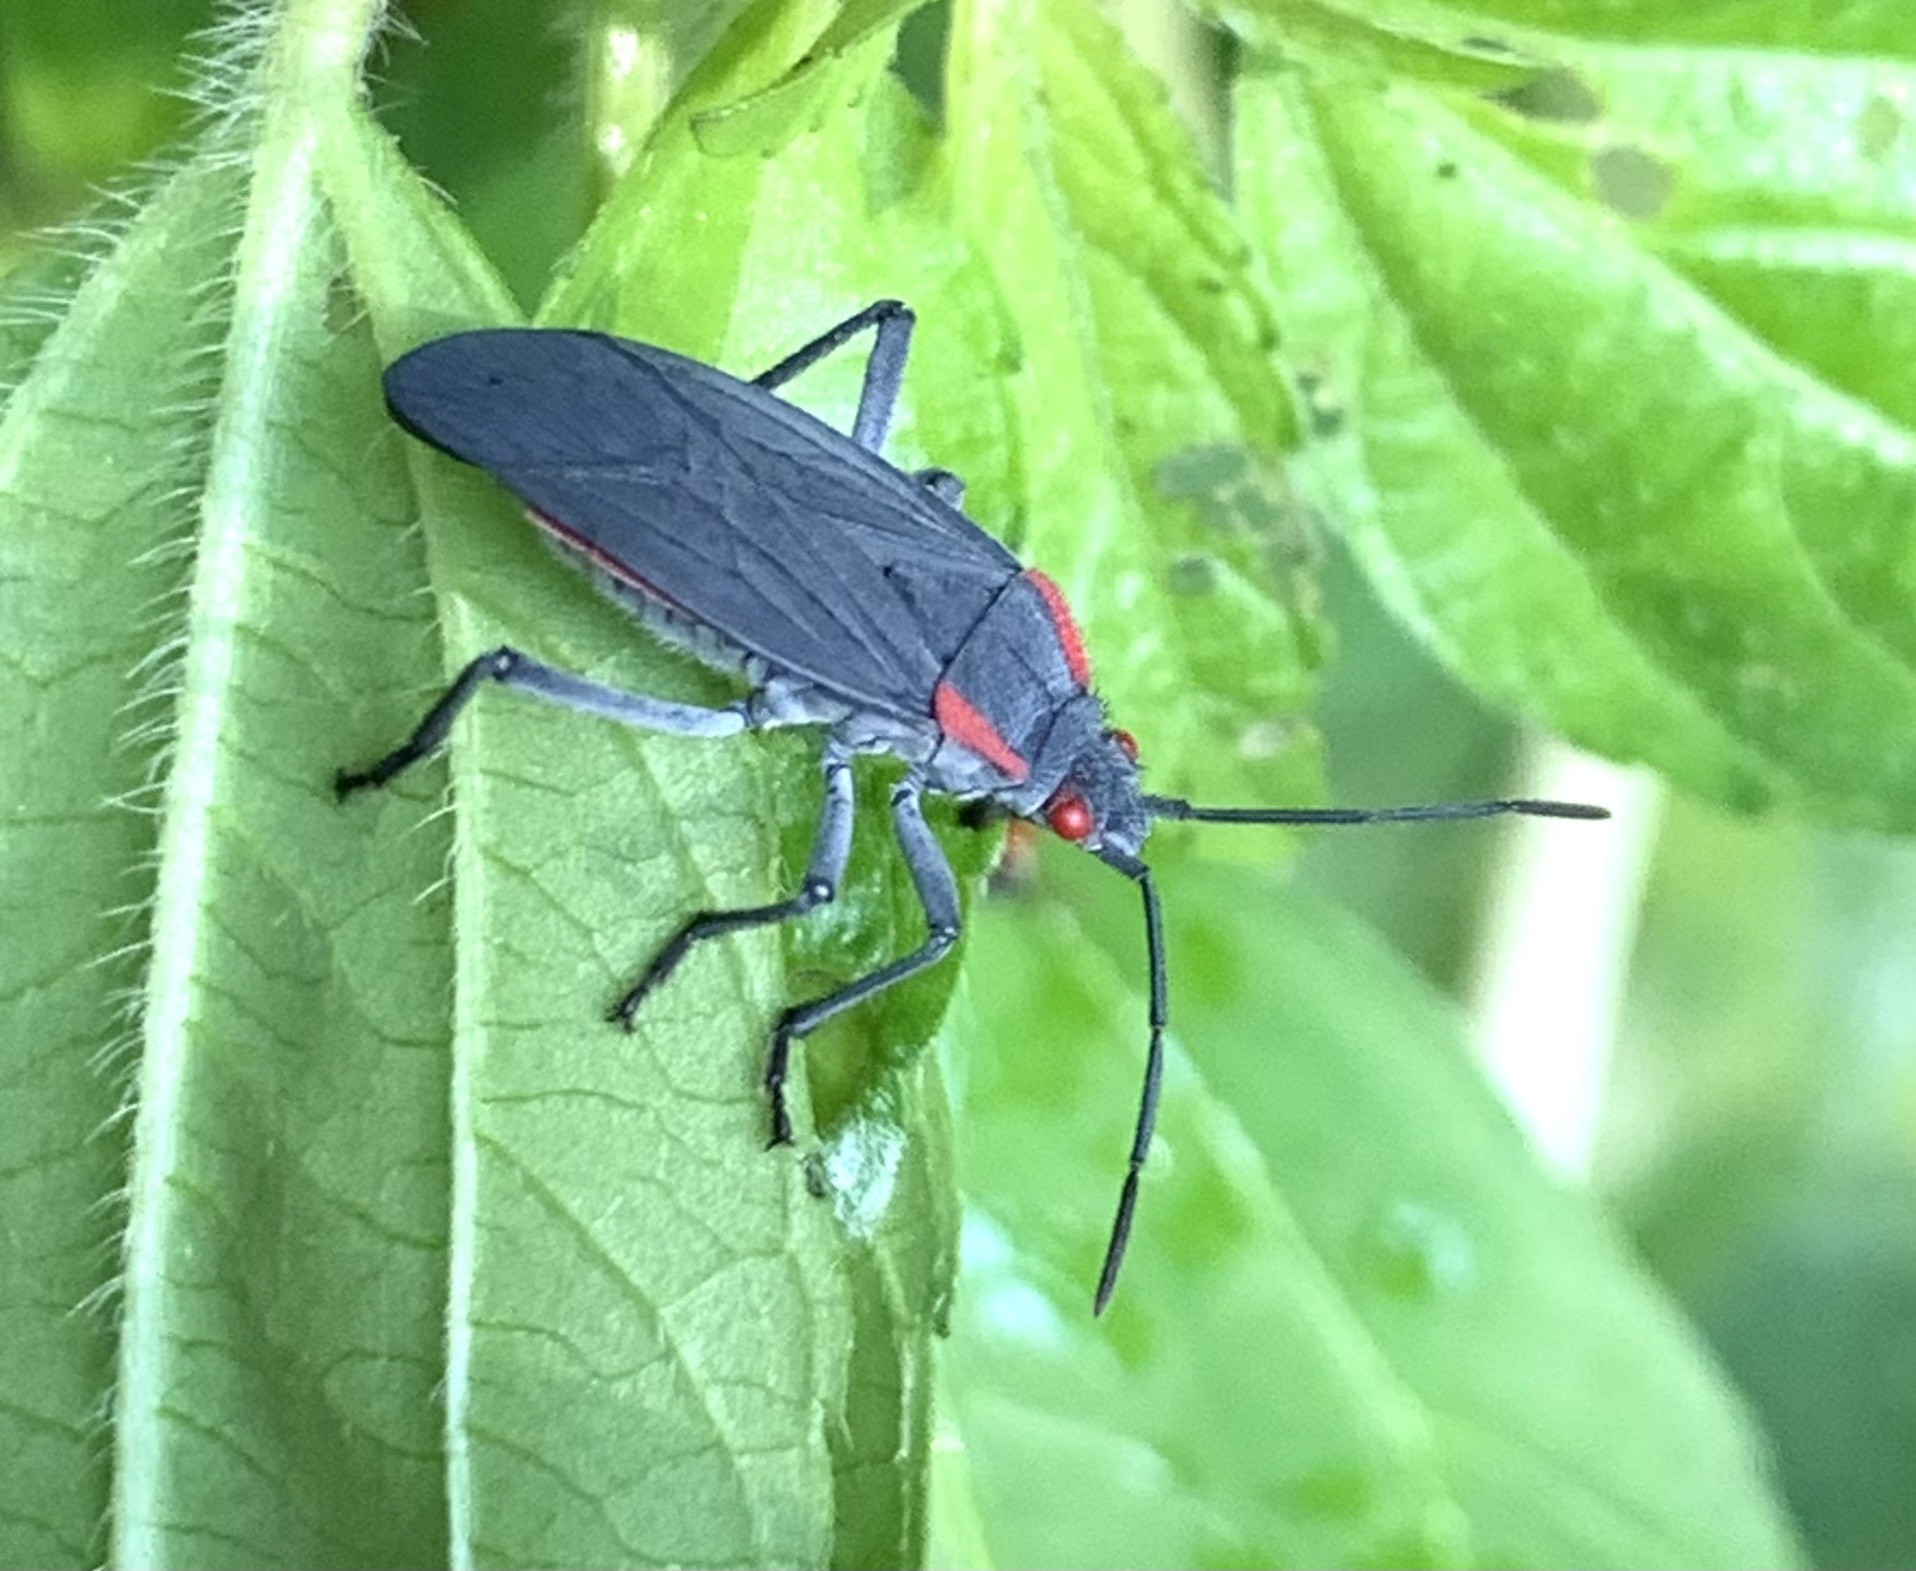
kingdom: Animalia
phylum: Arthropoda
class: Insecta
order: Hemiptera
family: Rhopalidae
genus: Jadera
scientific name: Jadera haematoloma
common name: Red-shouldered bug
